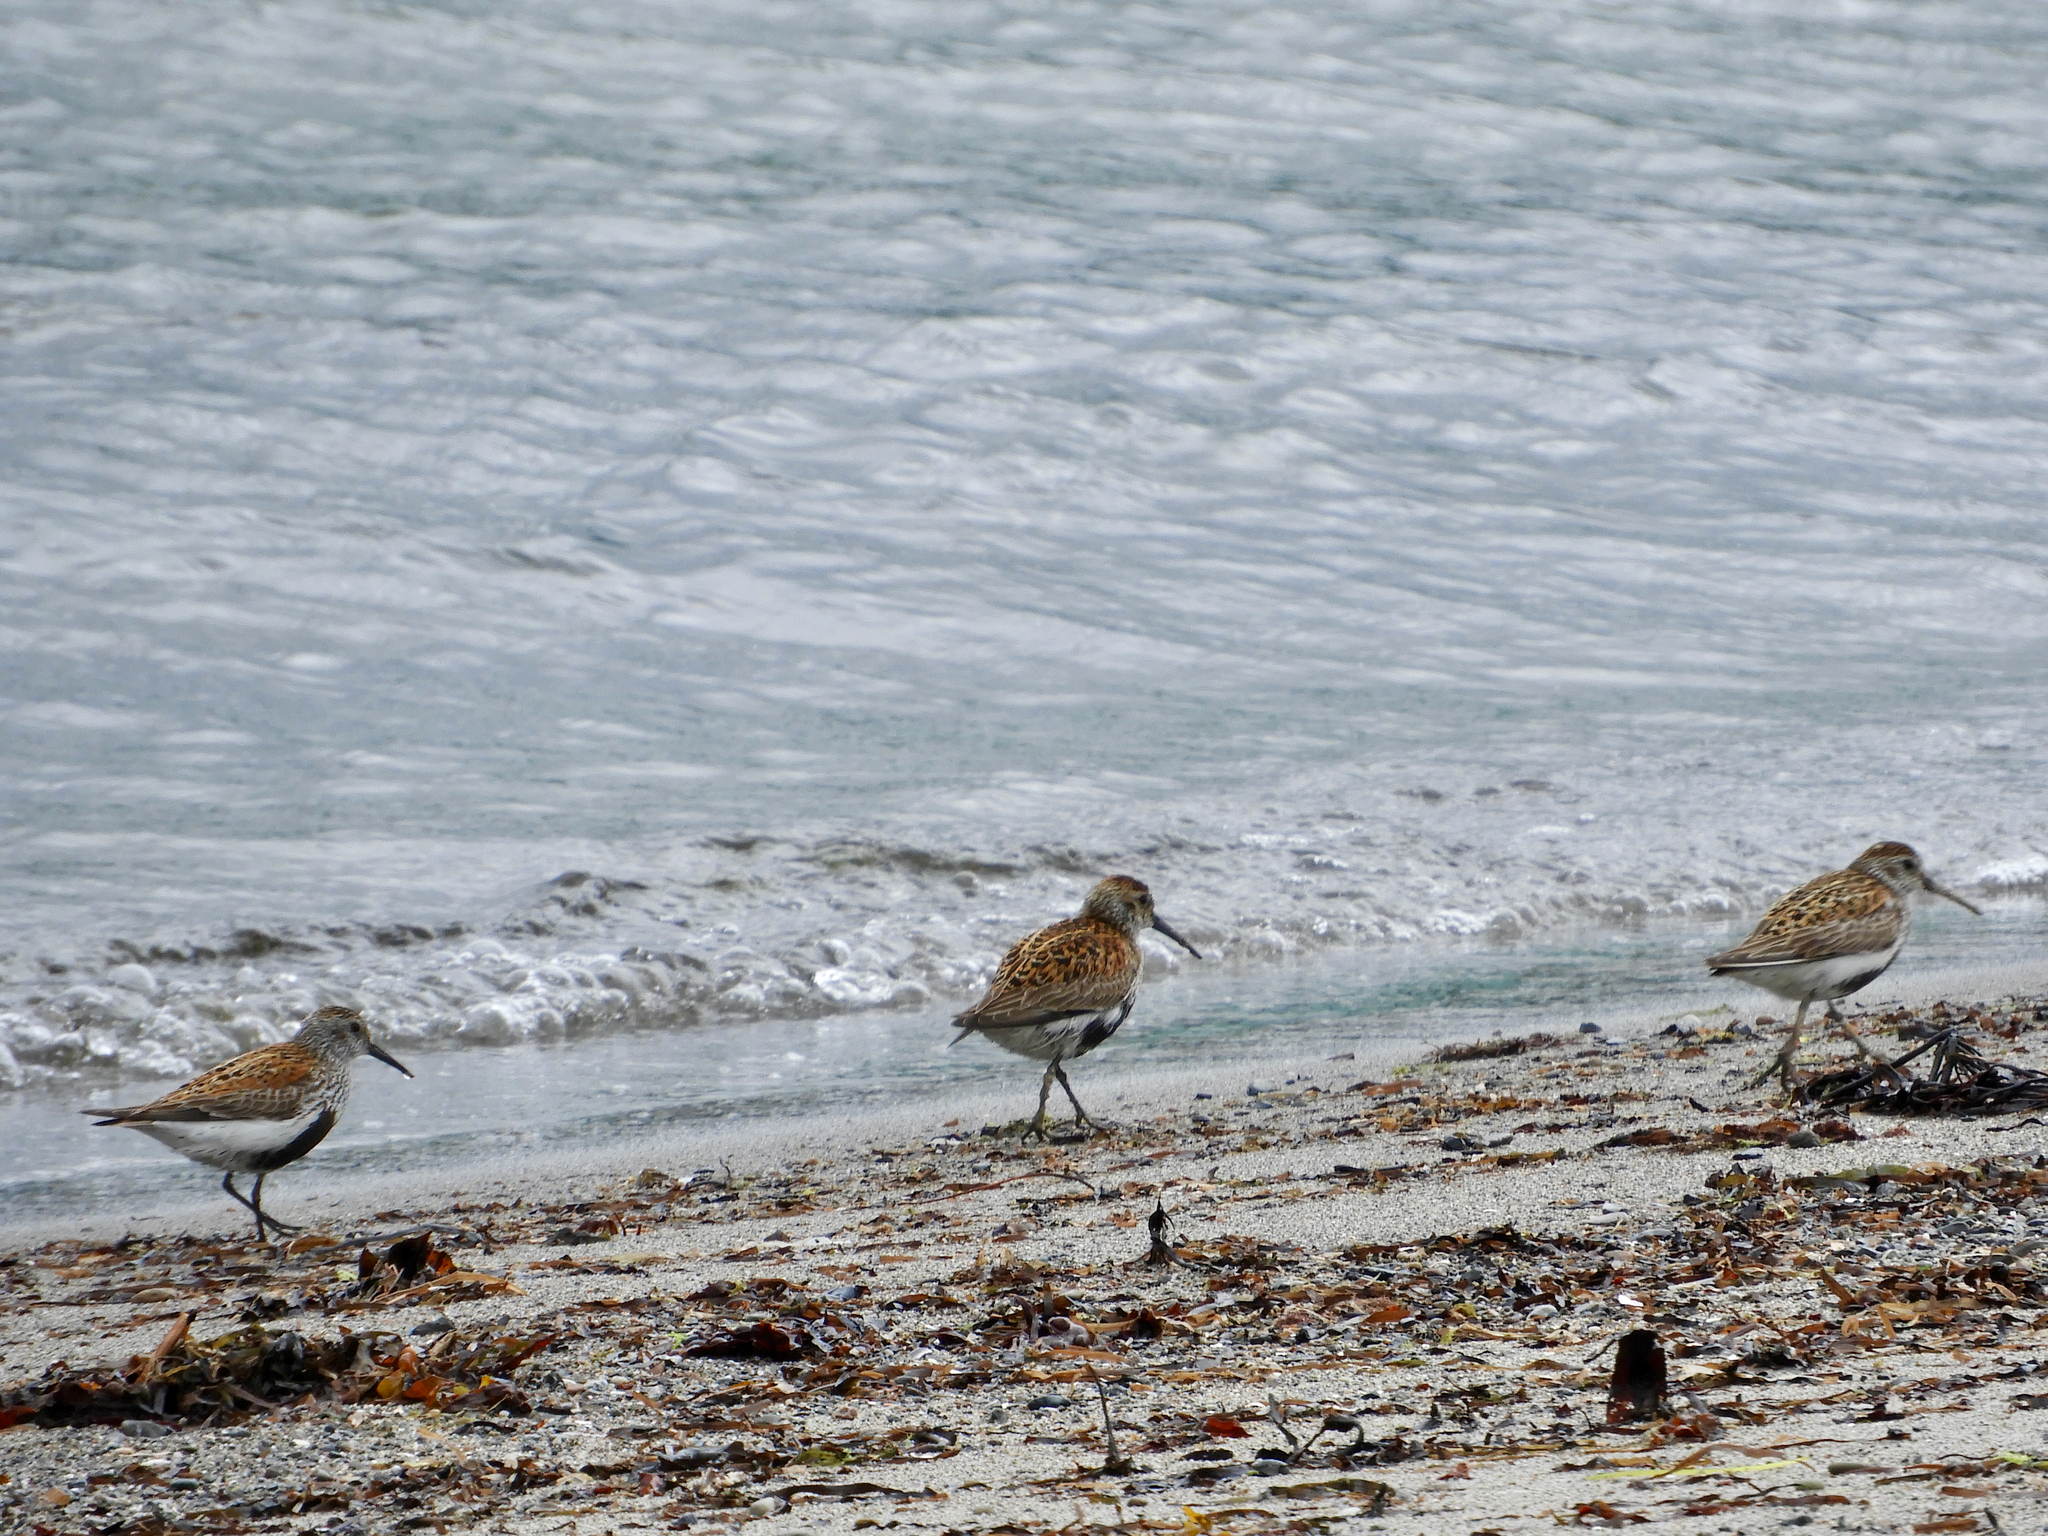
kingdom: Animalia
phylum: Chordata
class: Aves
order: Charadriiformes
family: Scolopacidae
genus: Calidris
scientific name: Calidris alpina
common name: Dunlin
